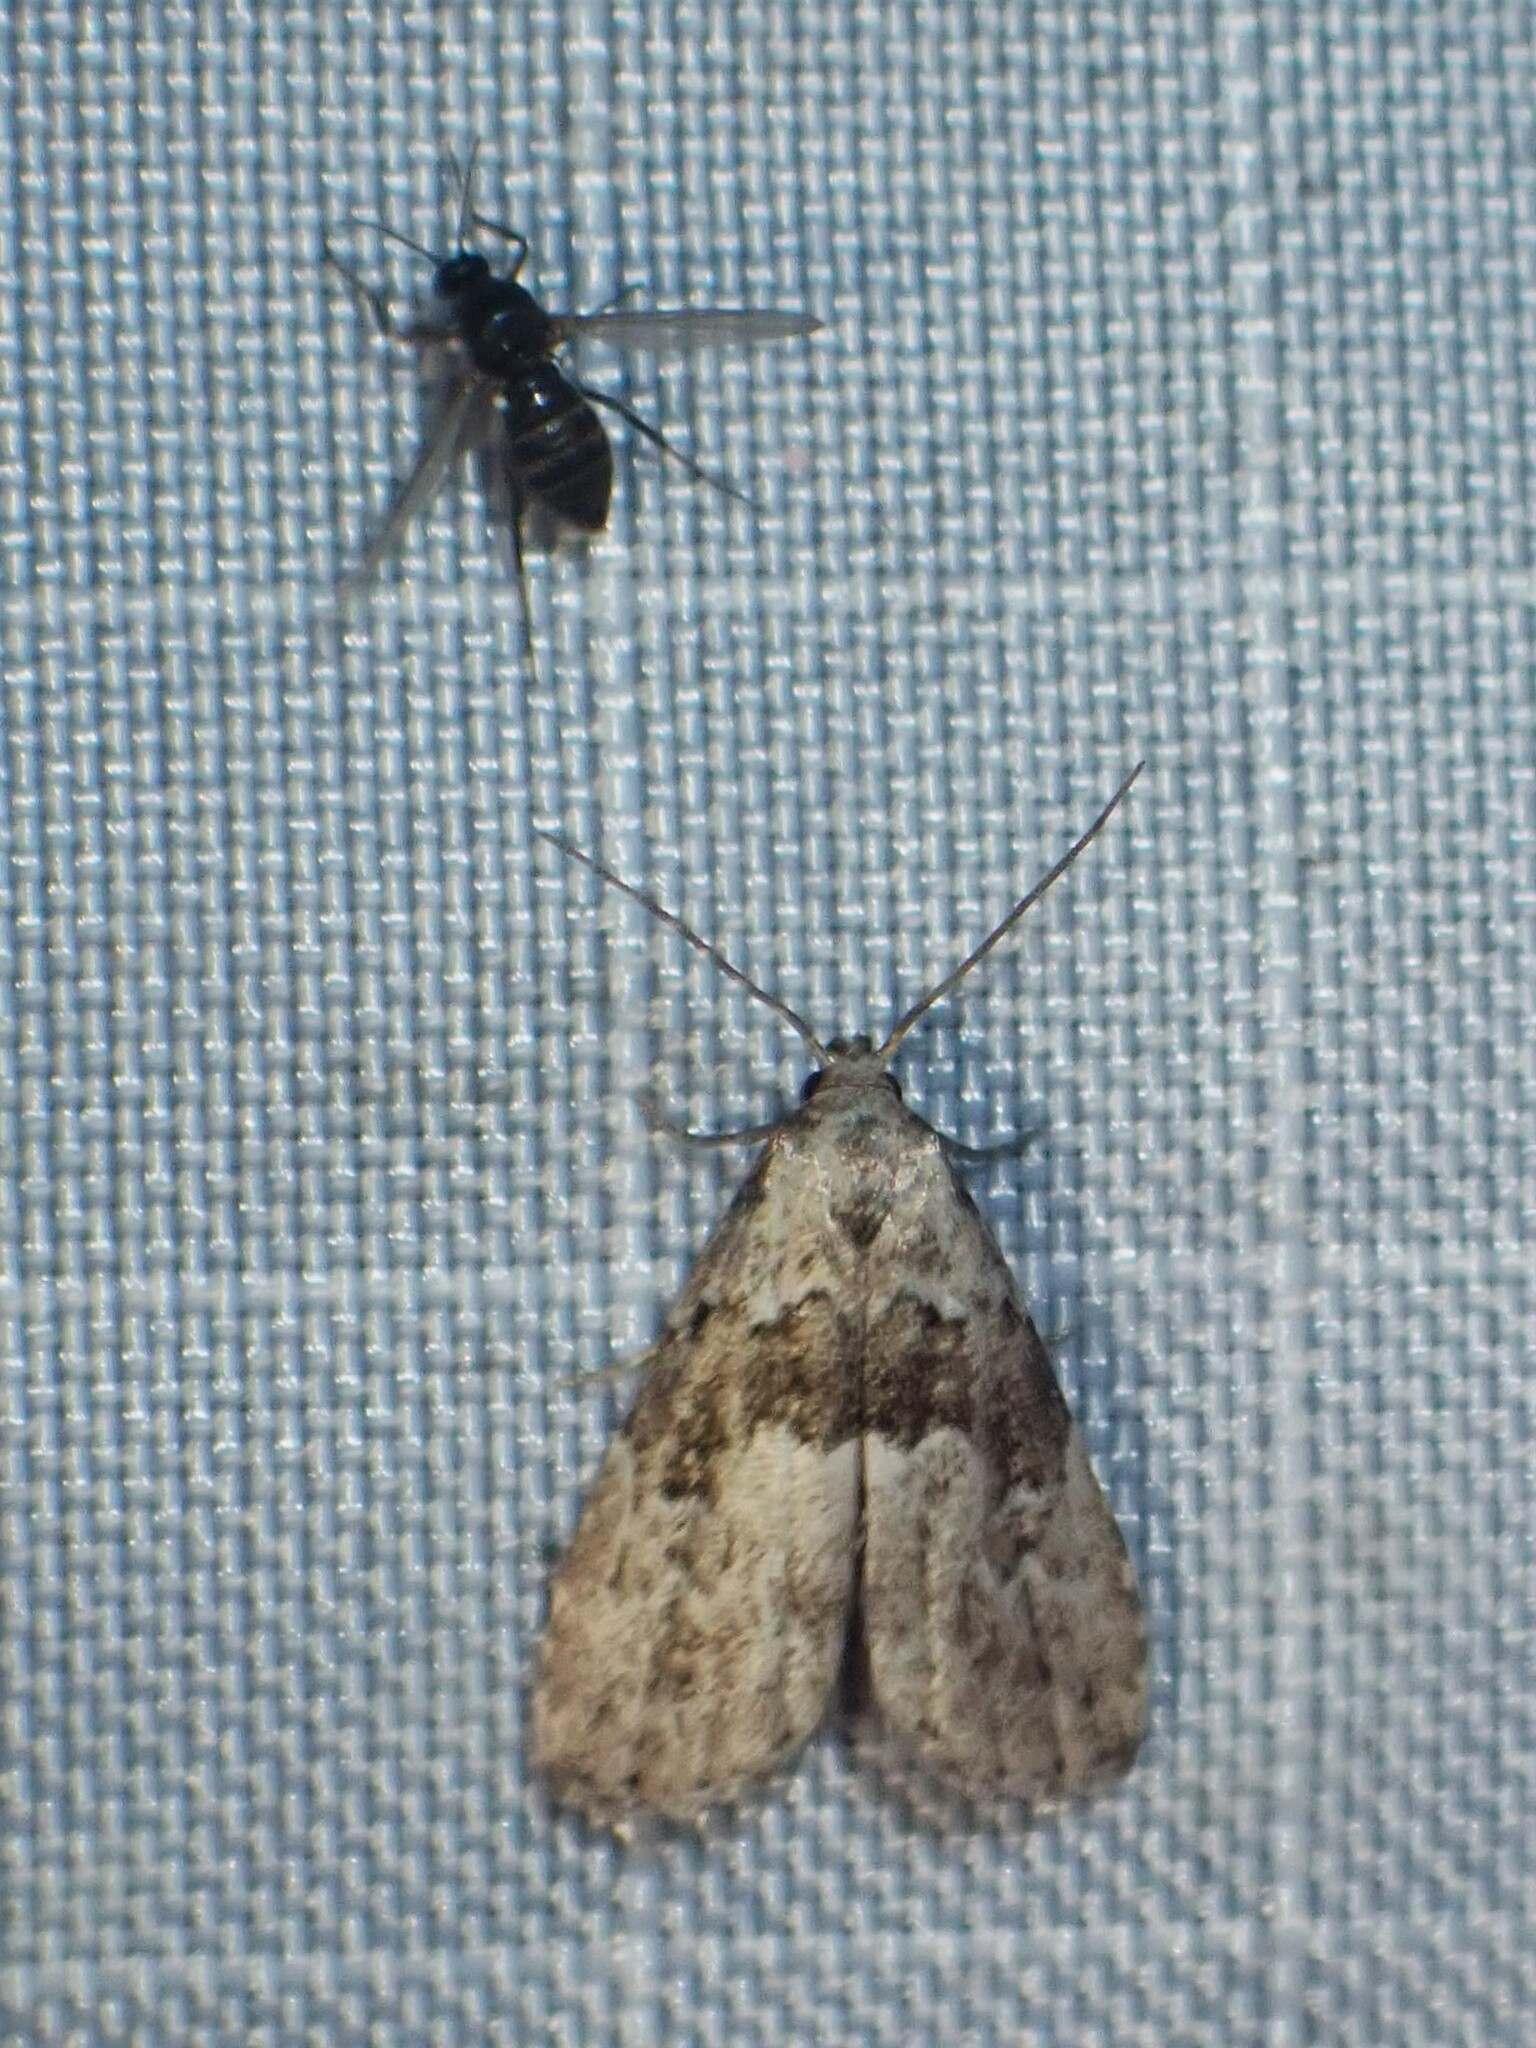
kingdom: Animalia
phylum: Arthropoda
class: Insecta
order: Lepidoptera
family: Erebidae
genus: Hypenodes
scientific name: Hypenodes franclemonti
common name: Franclemont's hypenodes moth
